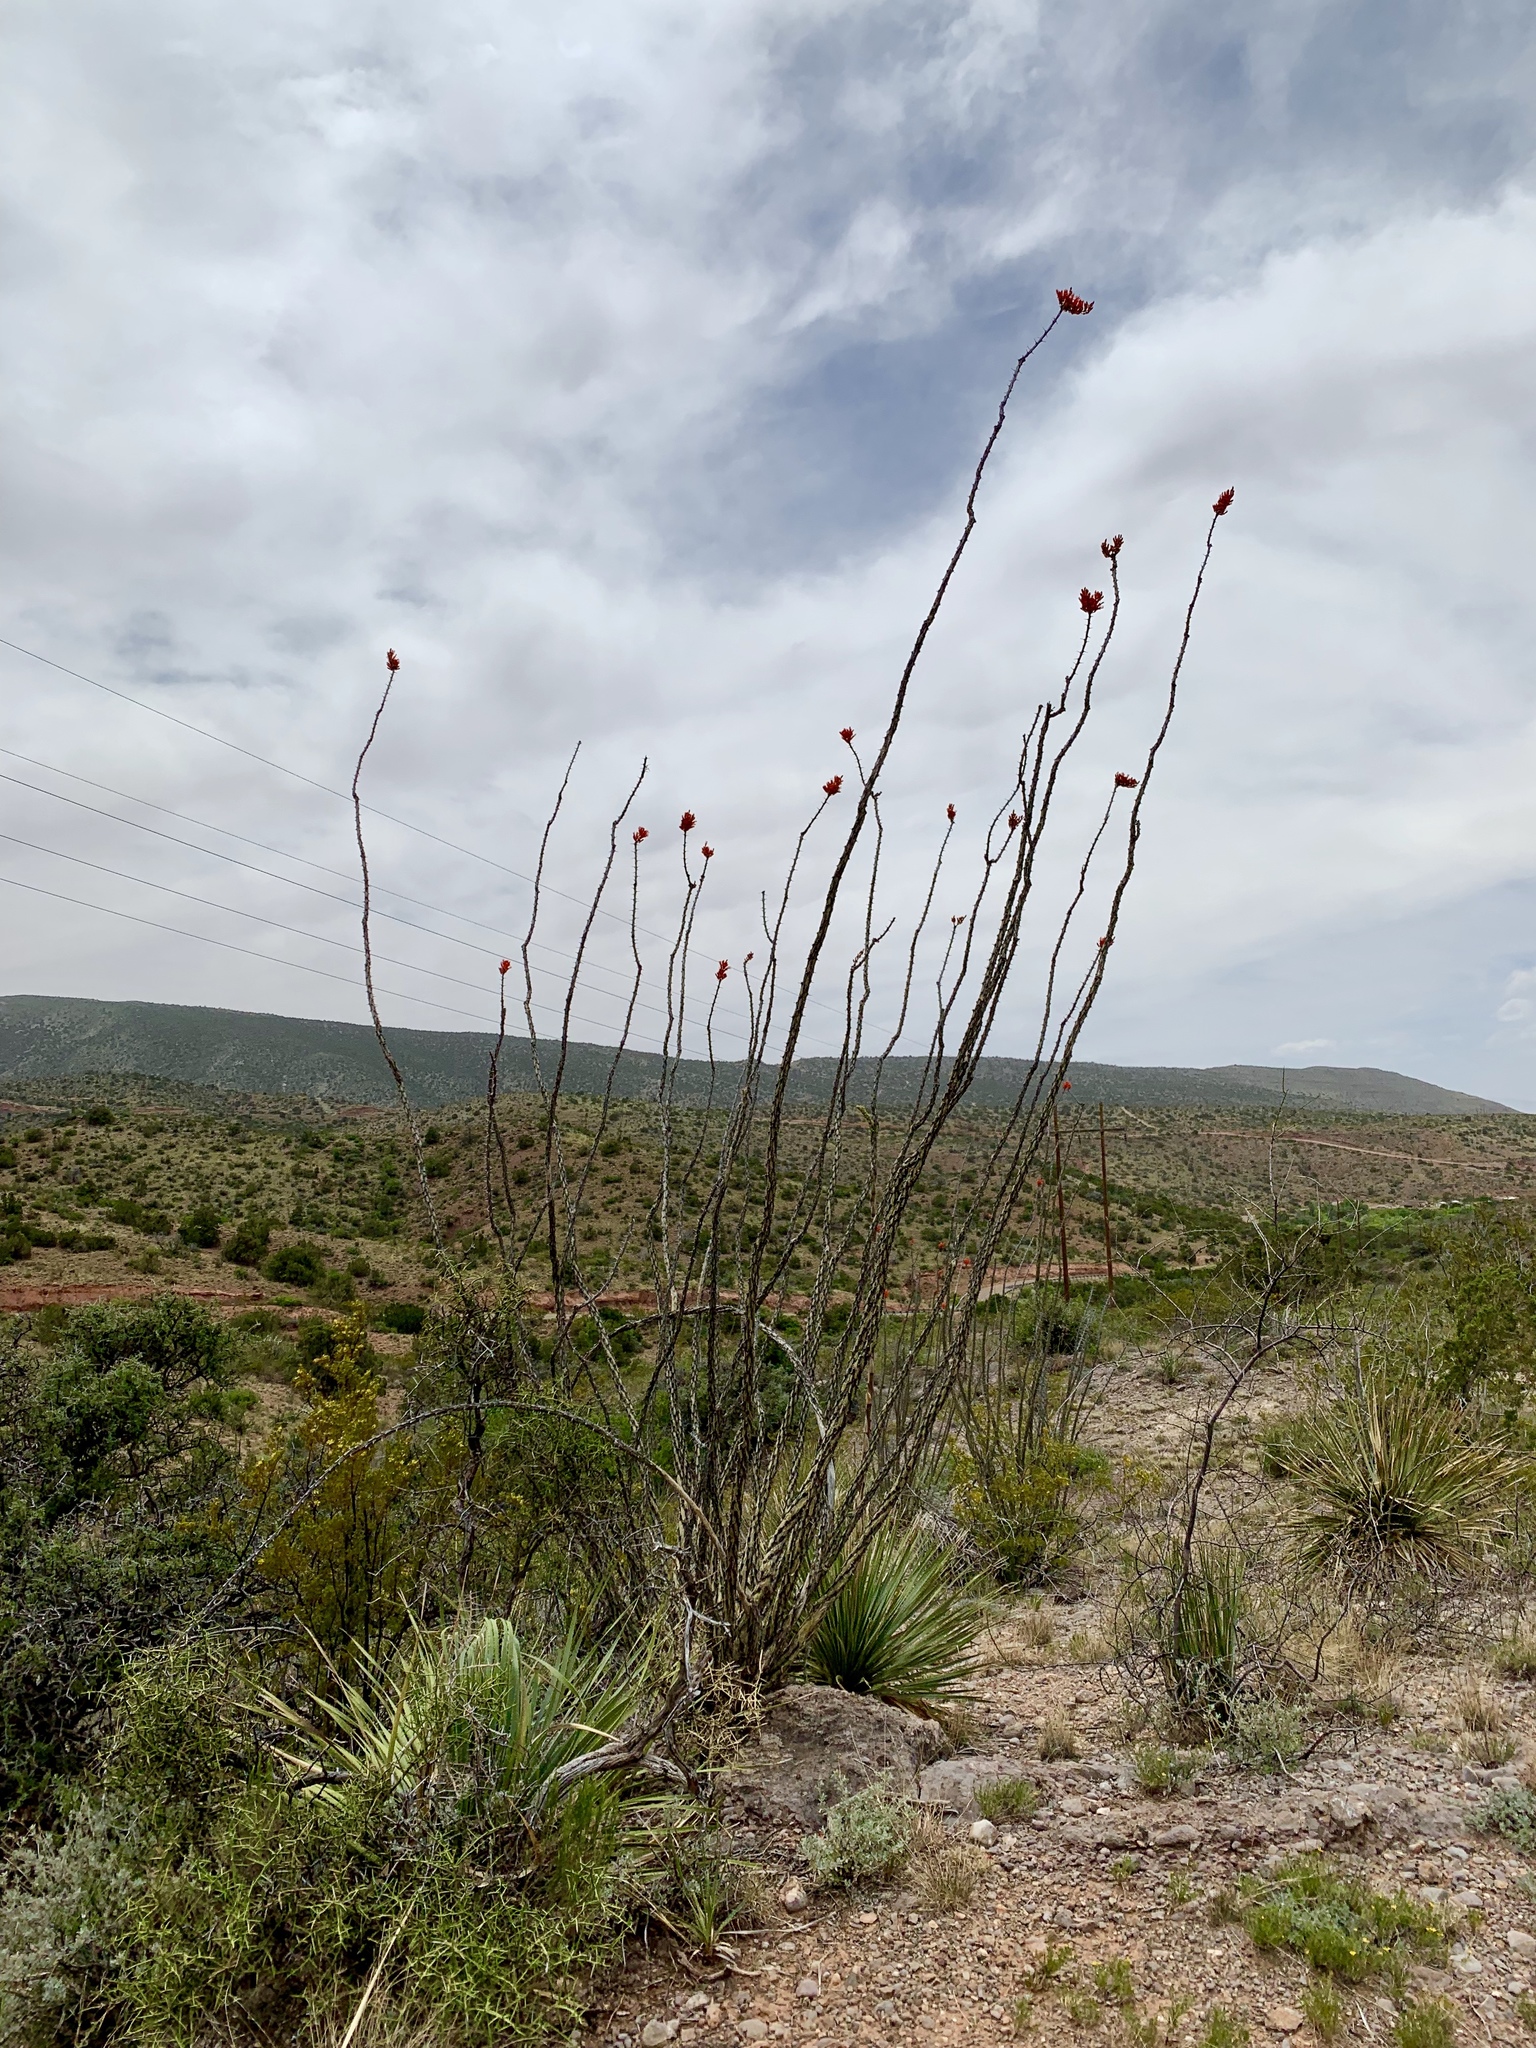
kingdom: Plantae
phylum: Tracheophyta
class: Magnoliopsida
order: Ericales
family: Fouquieriaceae
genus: Fouquieria
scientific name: Fouquieria splendens
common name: Vine-cactus
